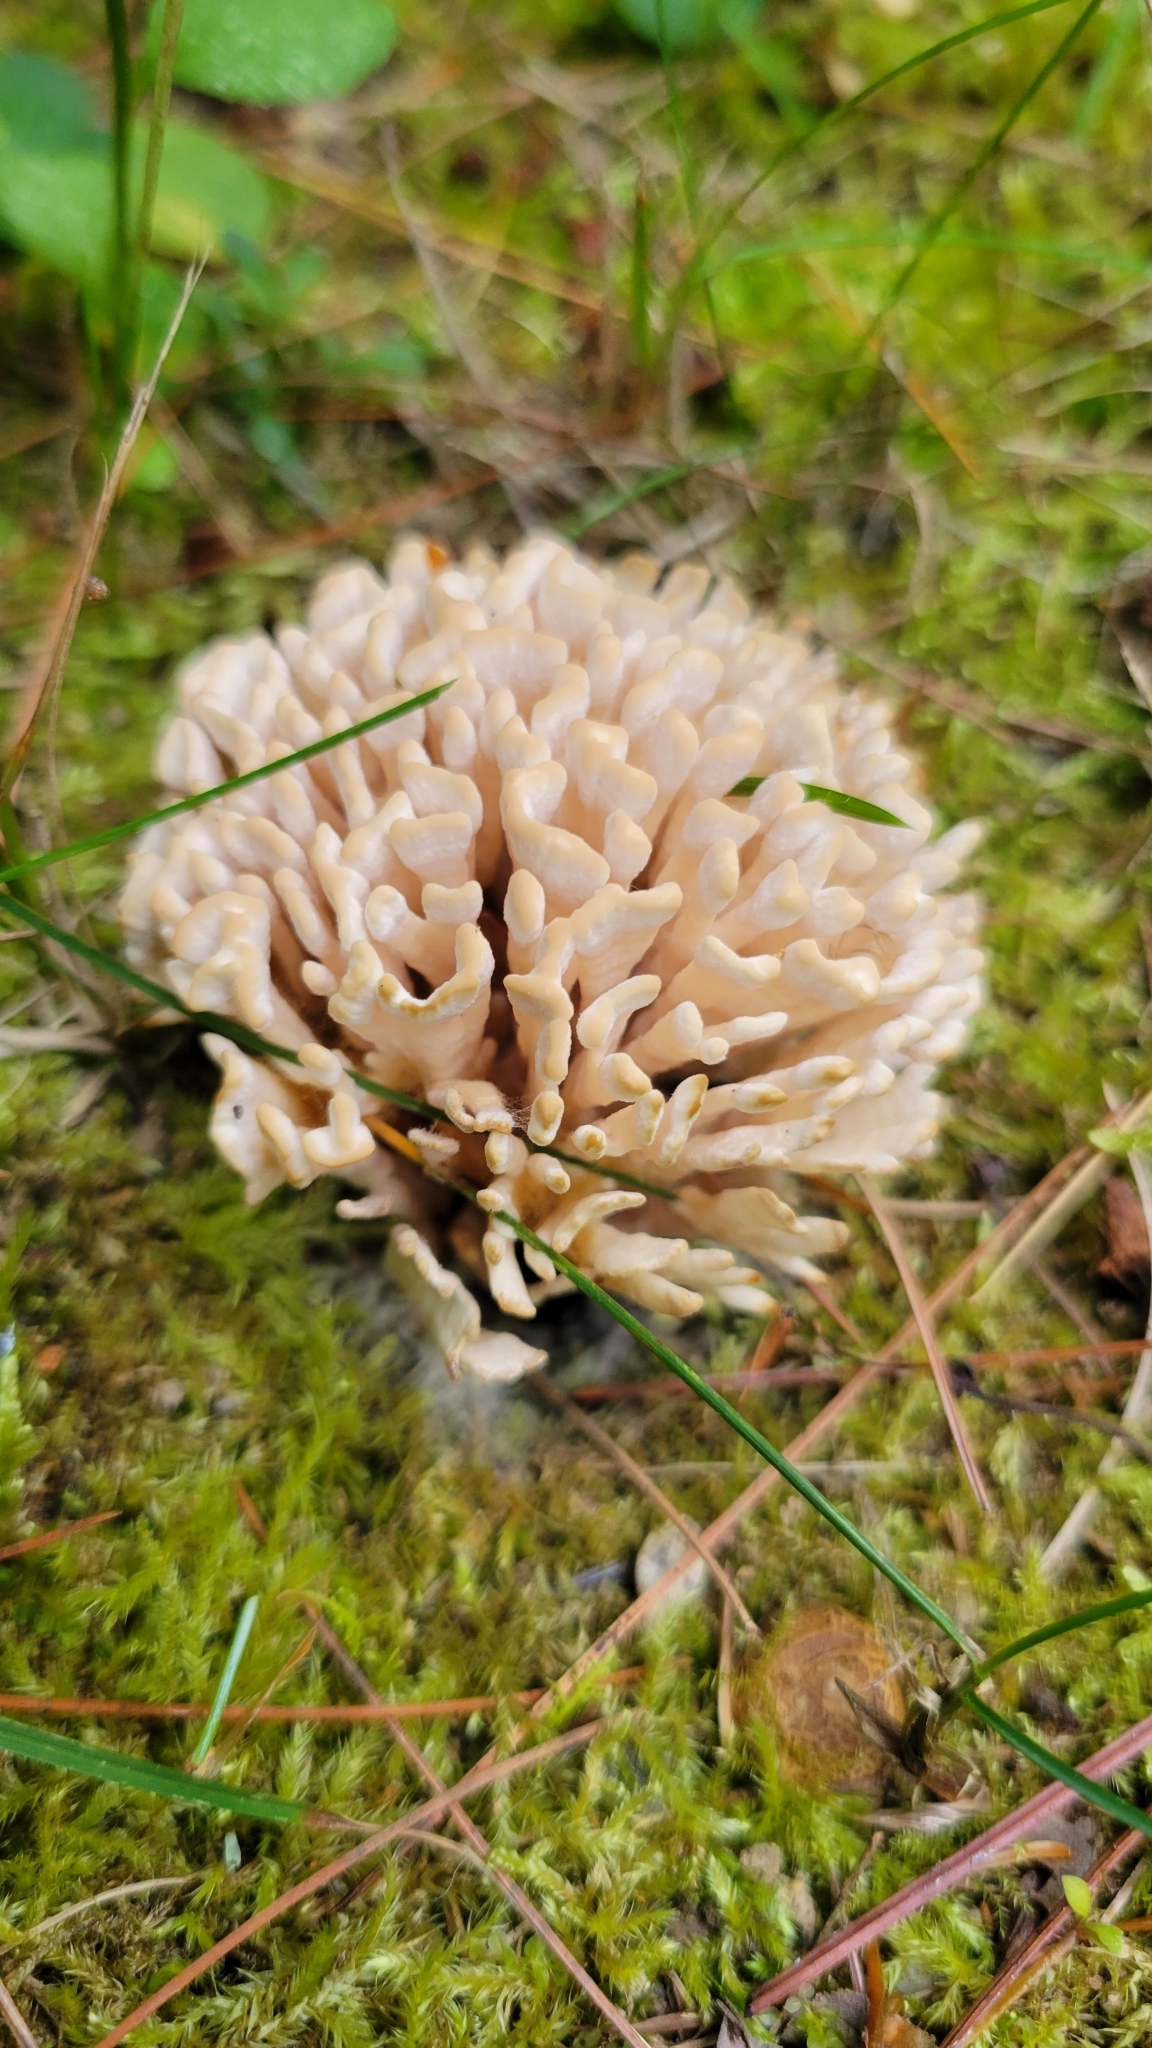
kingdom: Fungi
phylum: Basidiomycota
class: Agaricomycetes
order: Sebacinales
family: Sebacinaceae
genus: Sebacina
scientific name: Sebacina schweinitzii
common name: Jellied false coral fungus
